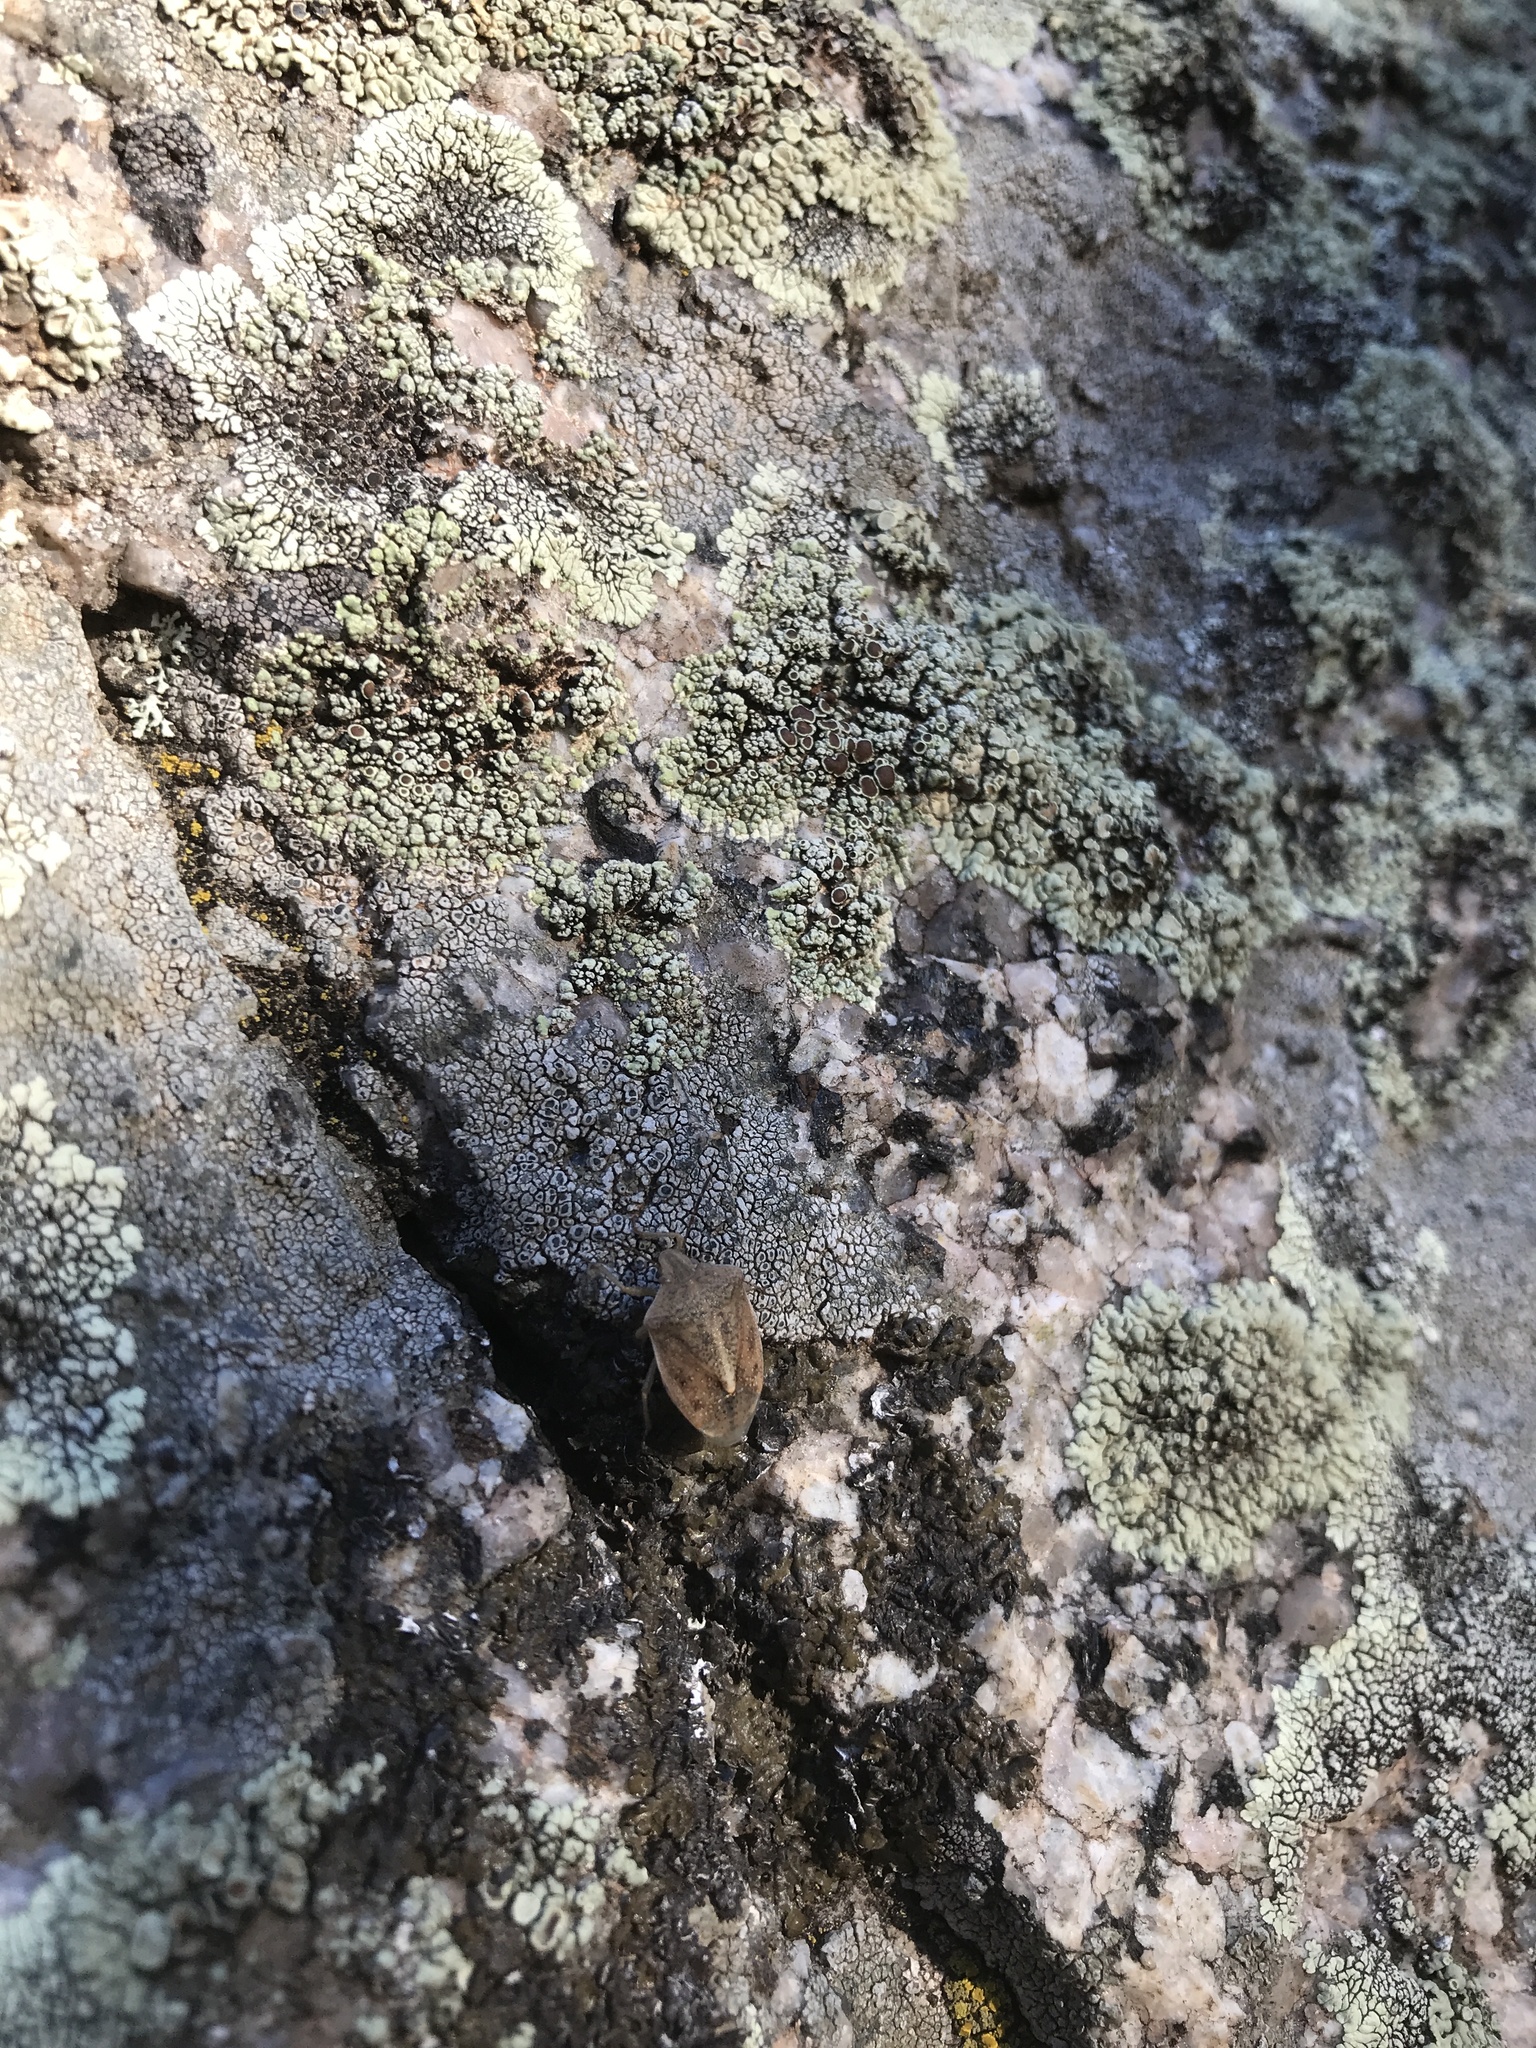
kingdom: Animalia
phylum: Arthropoda
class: Insecta
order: Hemiptera
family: Pentatomidae
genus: Thyanta
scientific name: Thyanta accerra
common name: Stink bug
